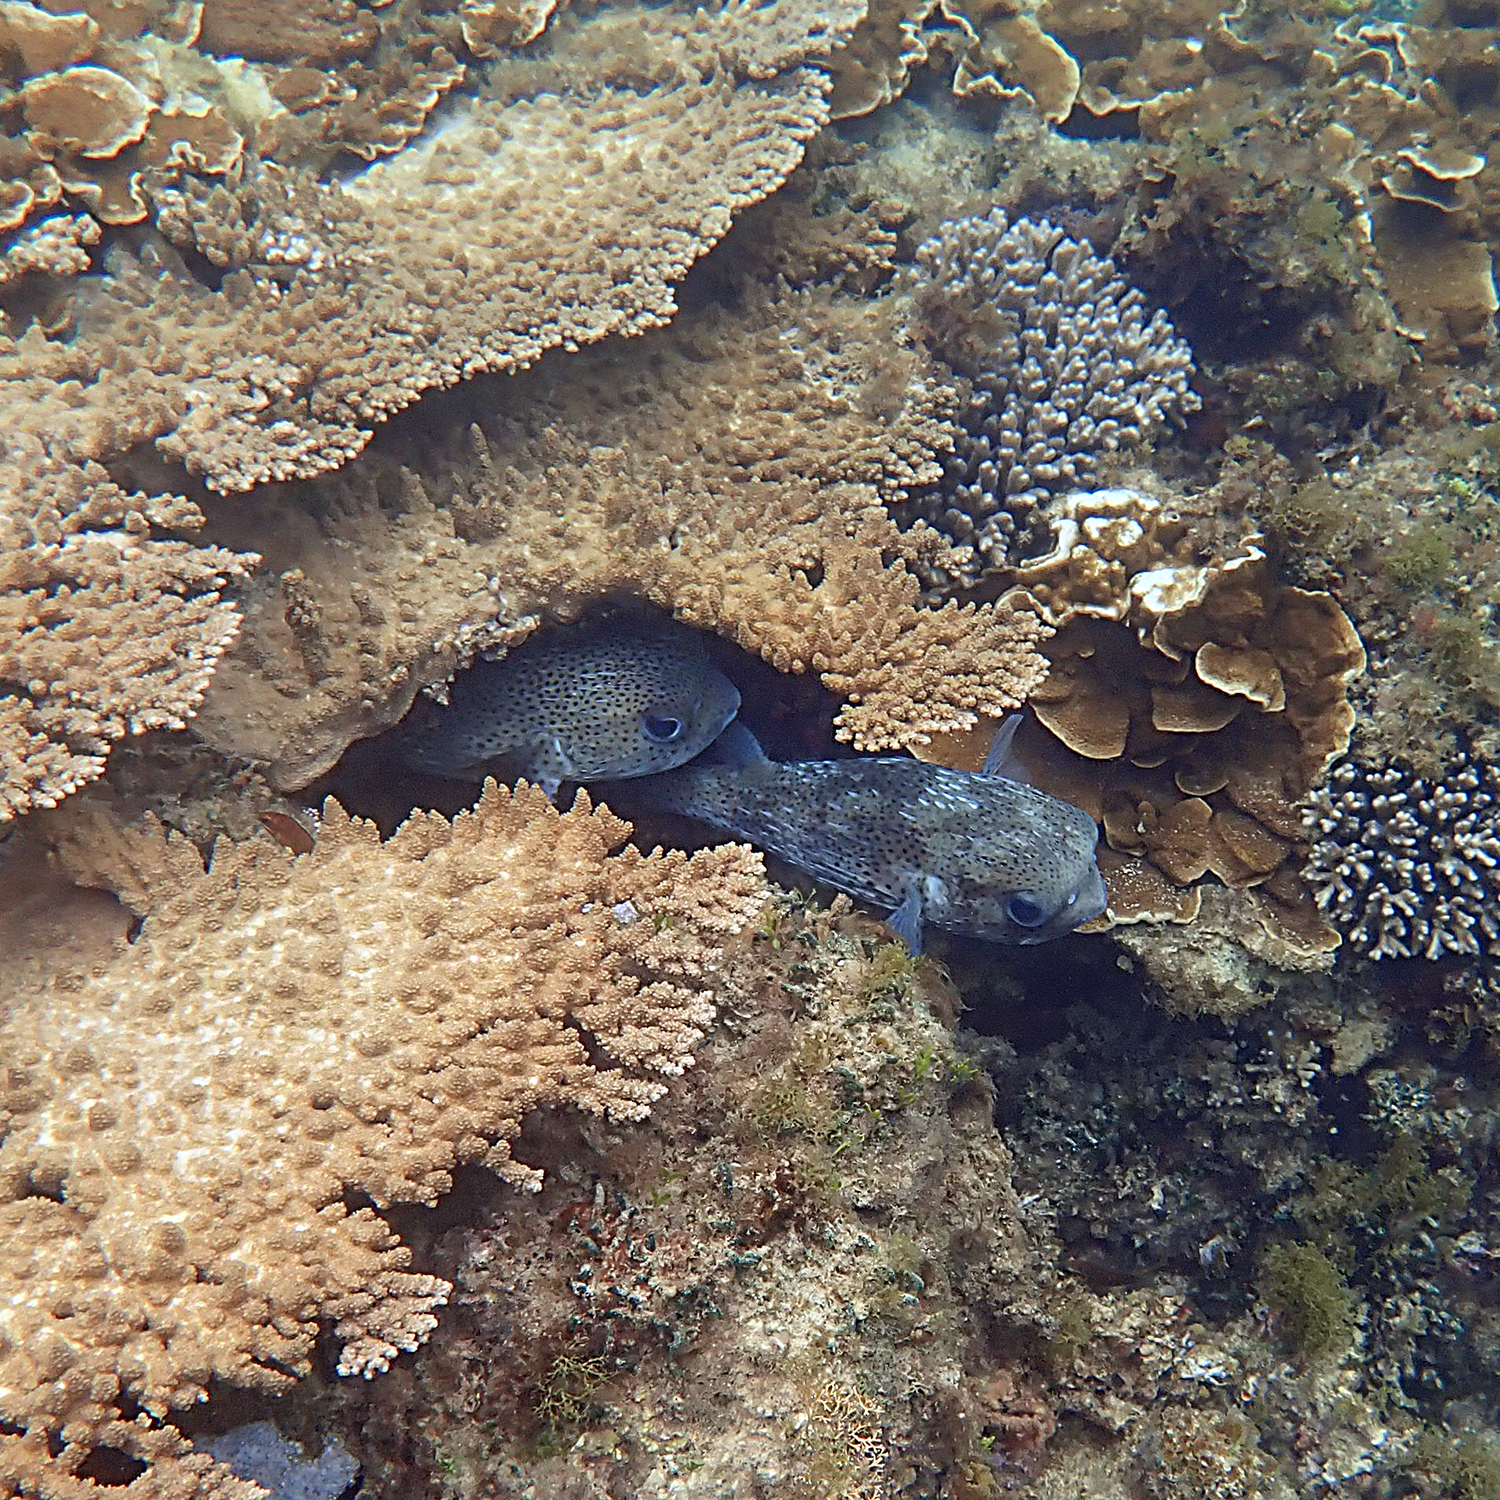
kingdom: Animalia
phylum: Chordata
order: Tetraodontiformes
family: Diodontidae
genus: Diodon
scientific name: Diodon hystrix
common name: Giant porcupinefish
